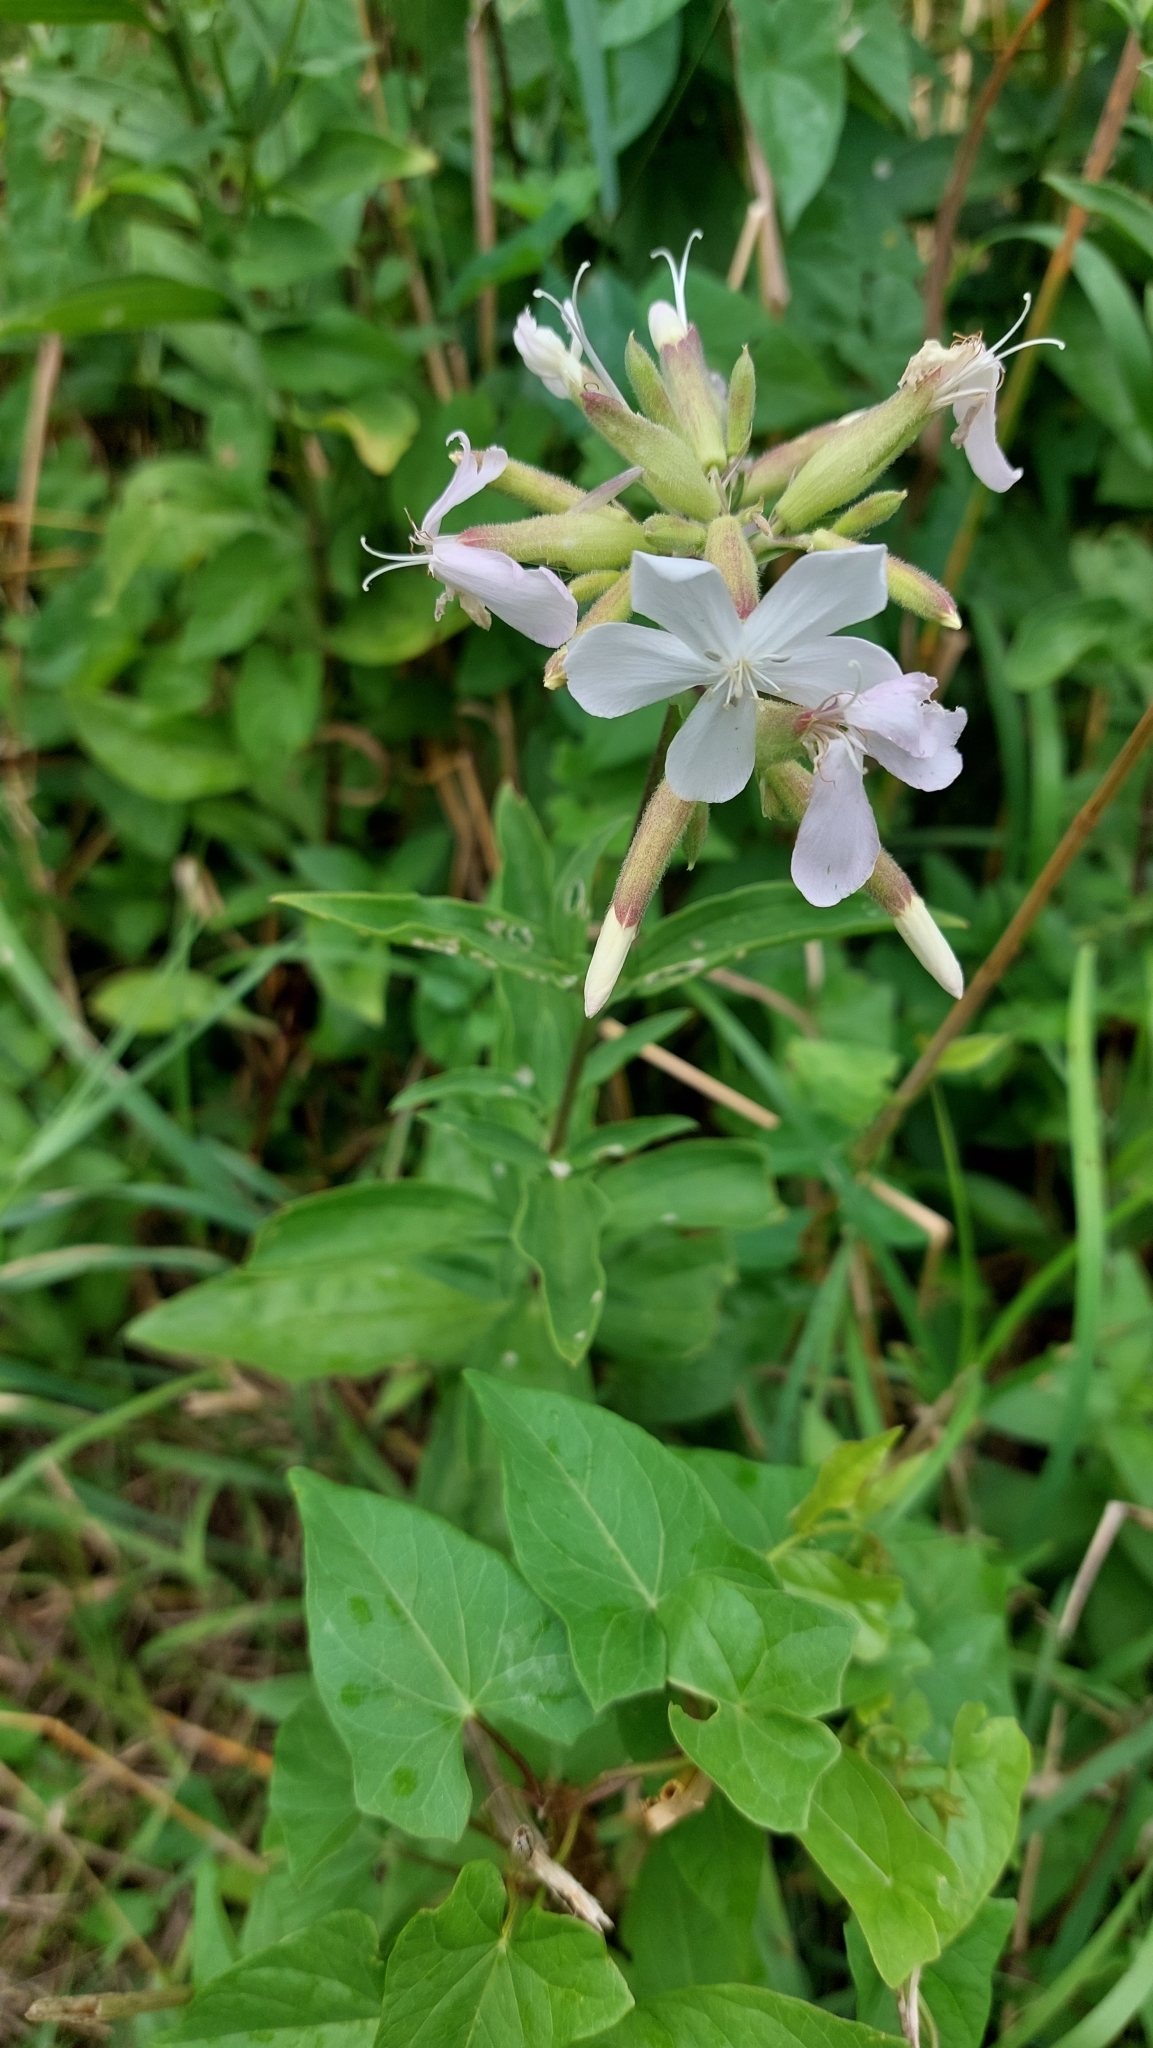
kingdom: Plantae
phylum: Tracheophyta
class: Magnoliopsida
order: Caryophyllales
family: Caryophyllaceae
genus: Saponaria
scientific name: Saponaria officinalis
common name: Soapwort
